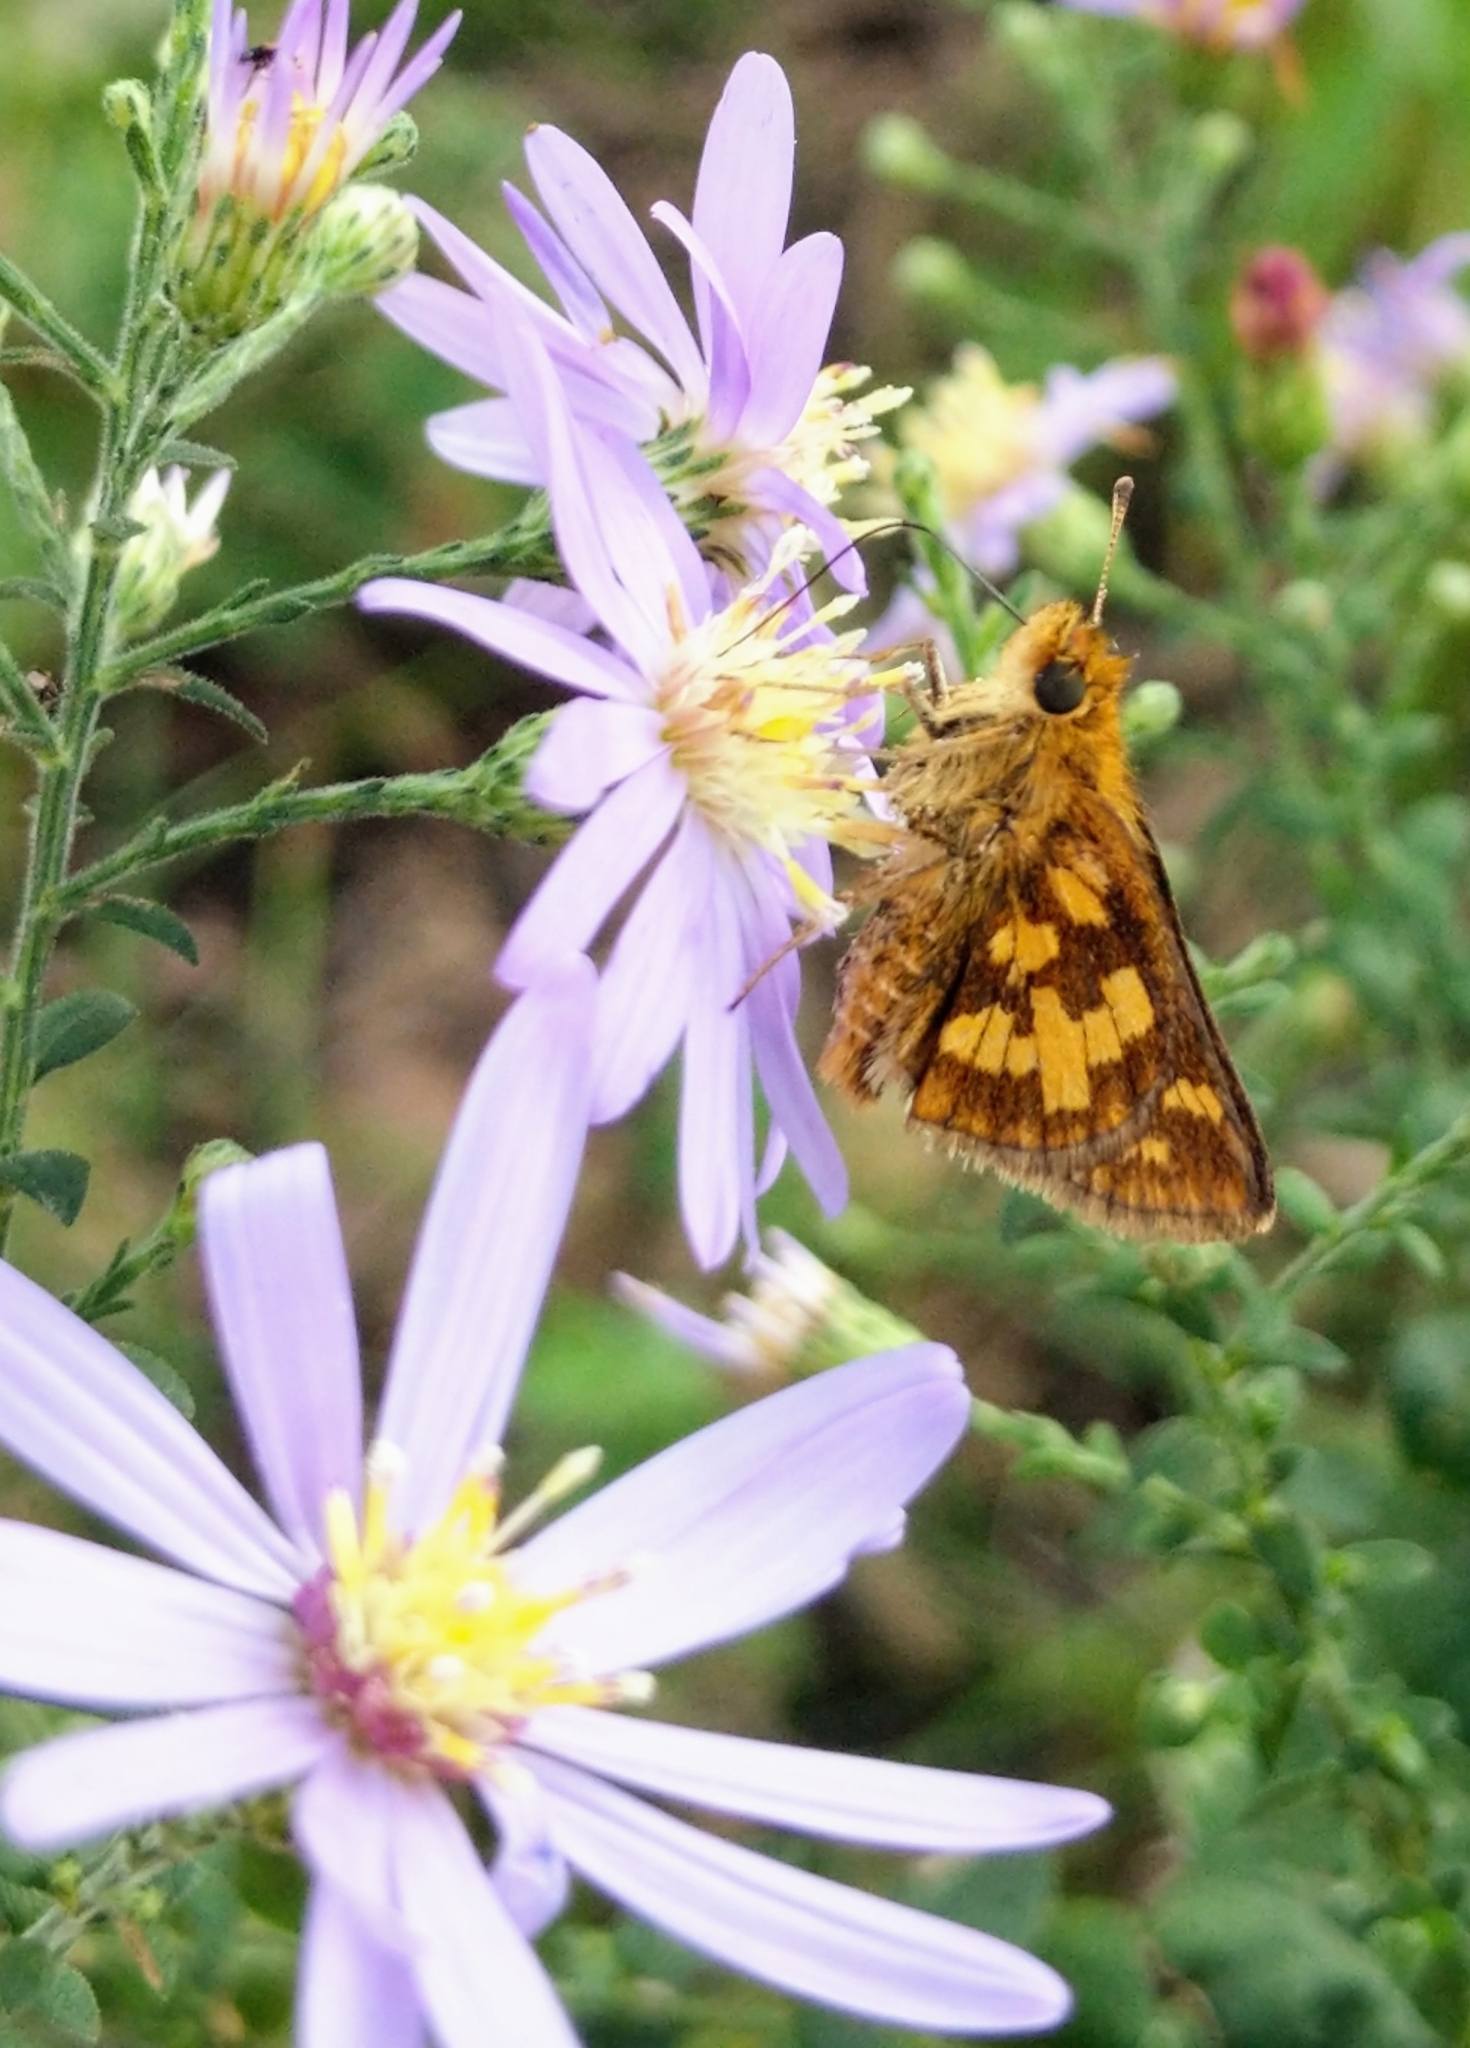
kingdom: Animalia
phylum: Arthropoda
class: Insecta
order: Lepidoptera
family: Hesperiidae
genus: Polites
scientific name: Polites coras
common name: Peck's skipper
